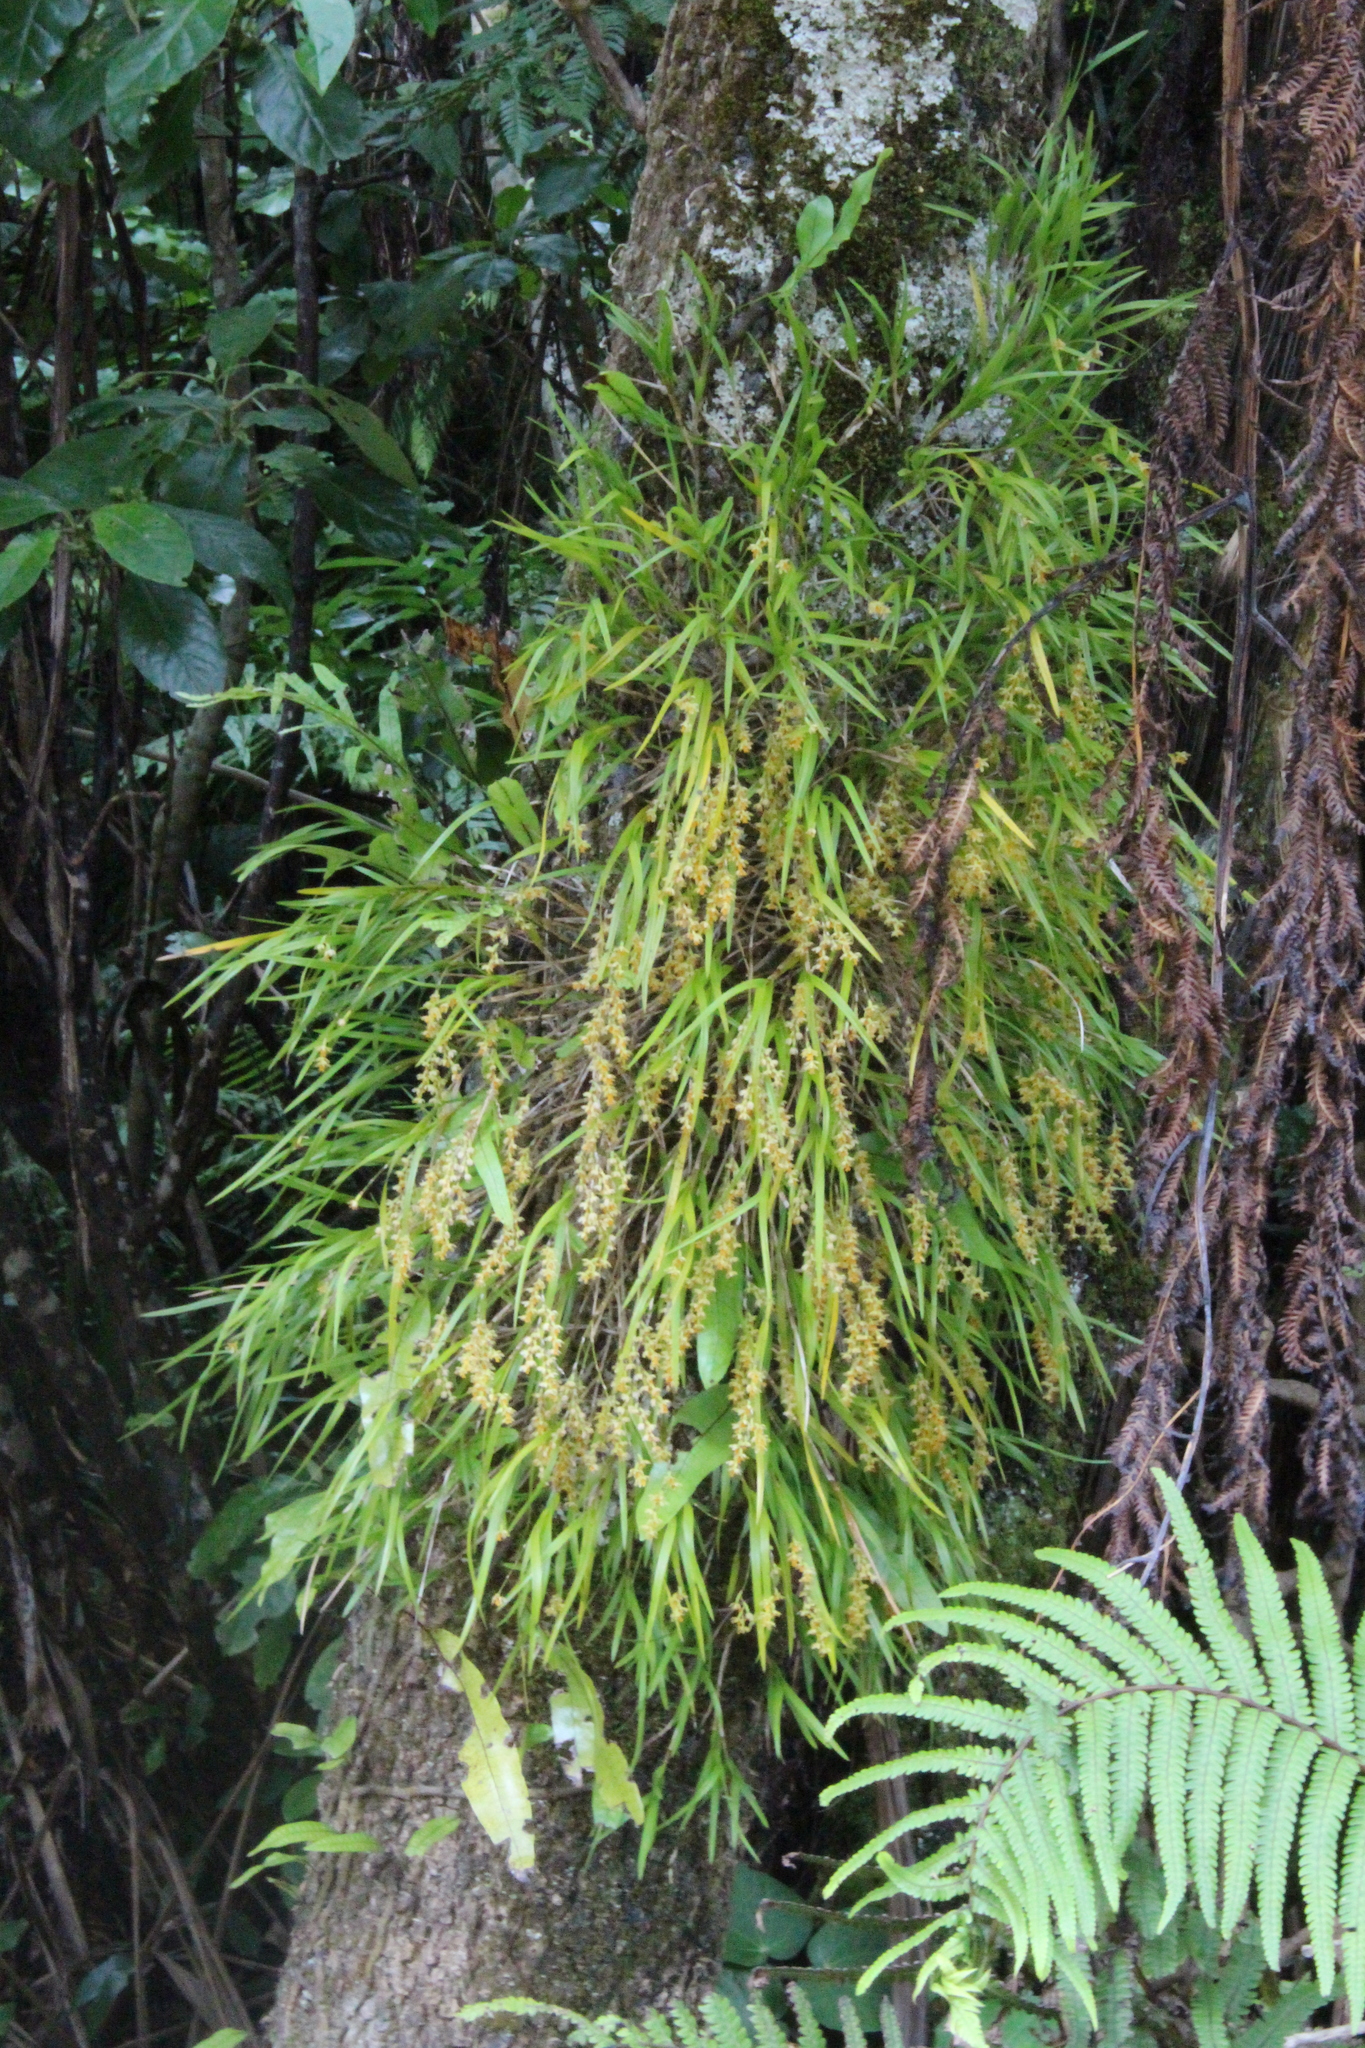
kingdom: Plantae
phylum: Tracheophyta
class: Liliopsida
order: Asparagales
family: Orchidaceae
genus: Earina
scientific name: Earina mucronata
